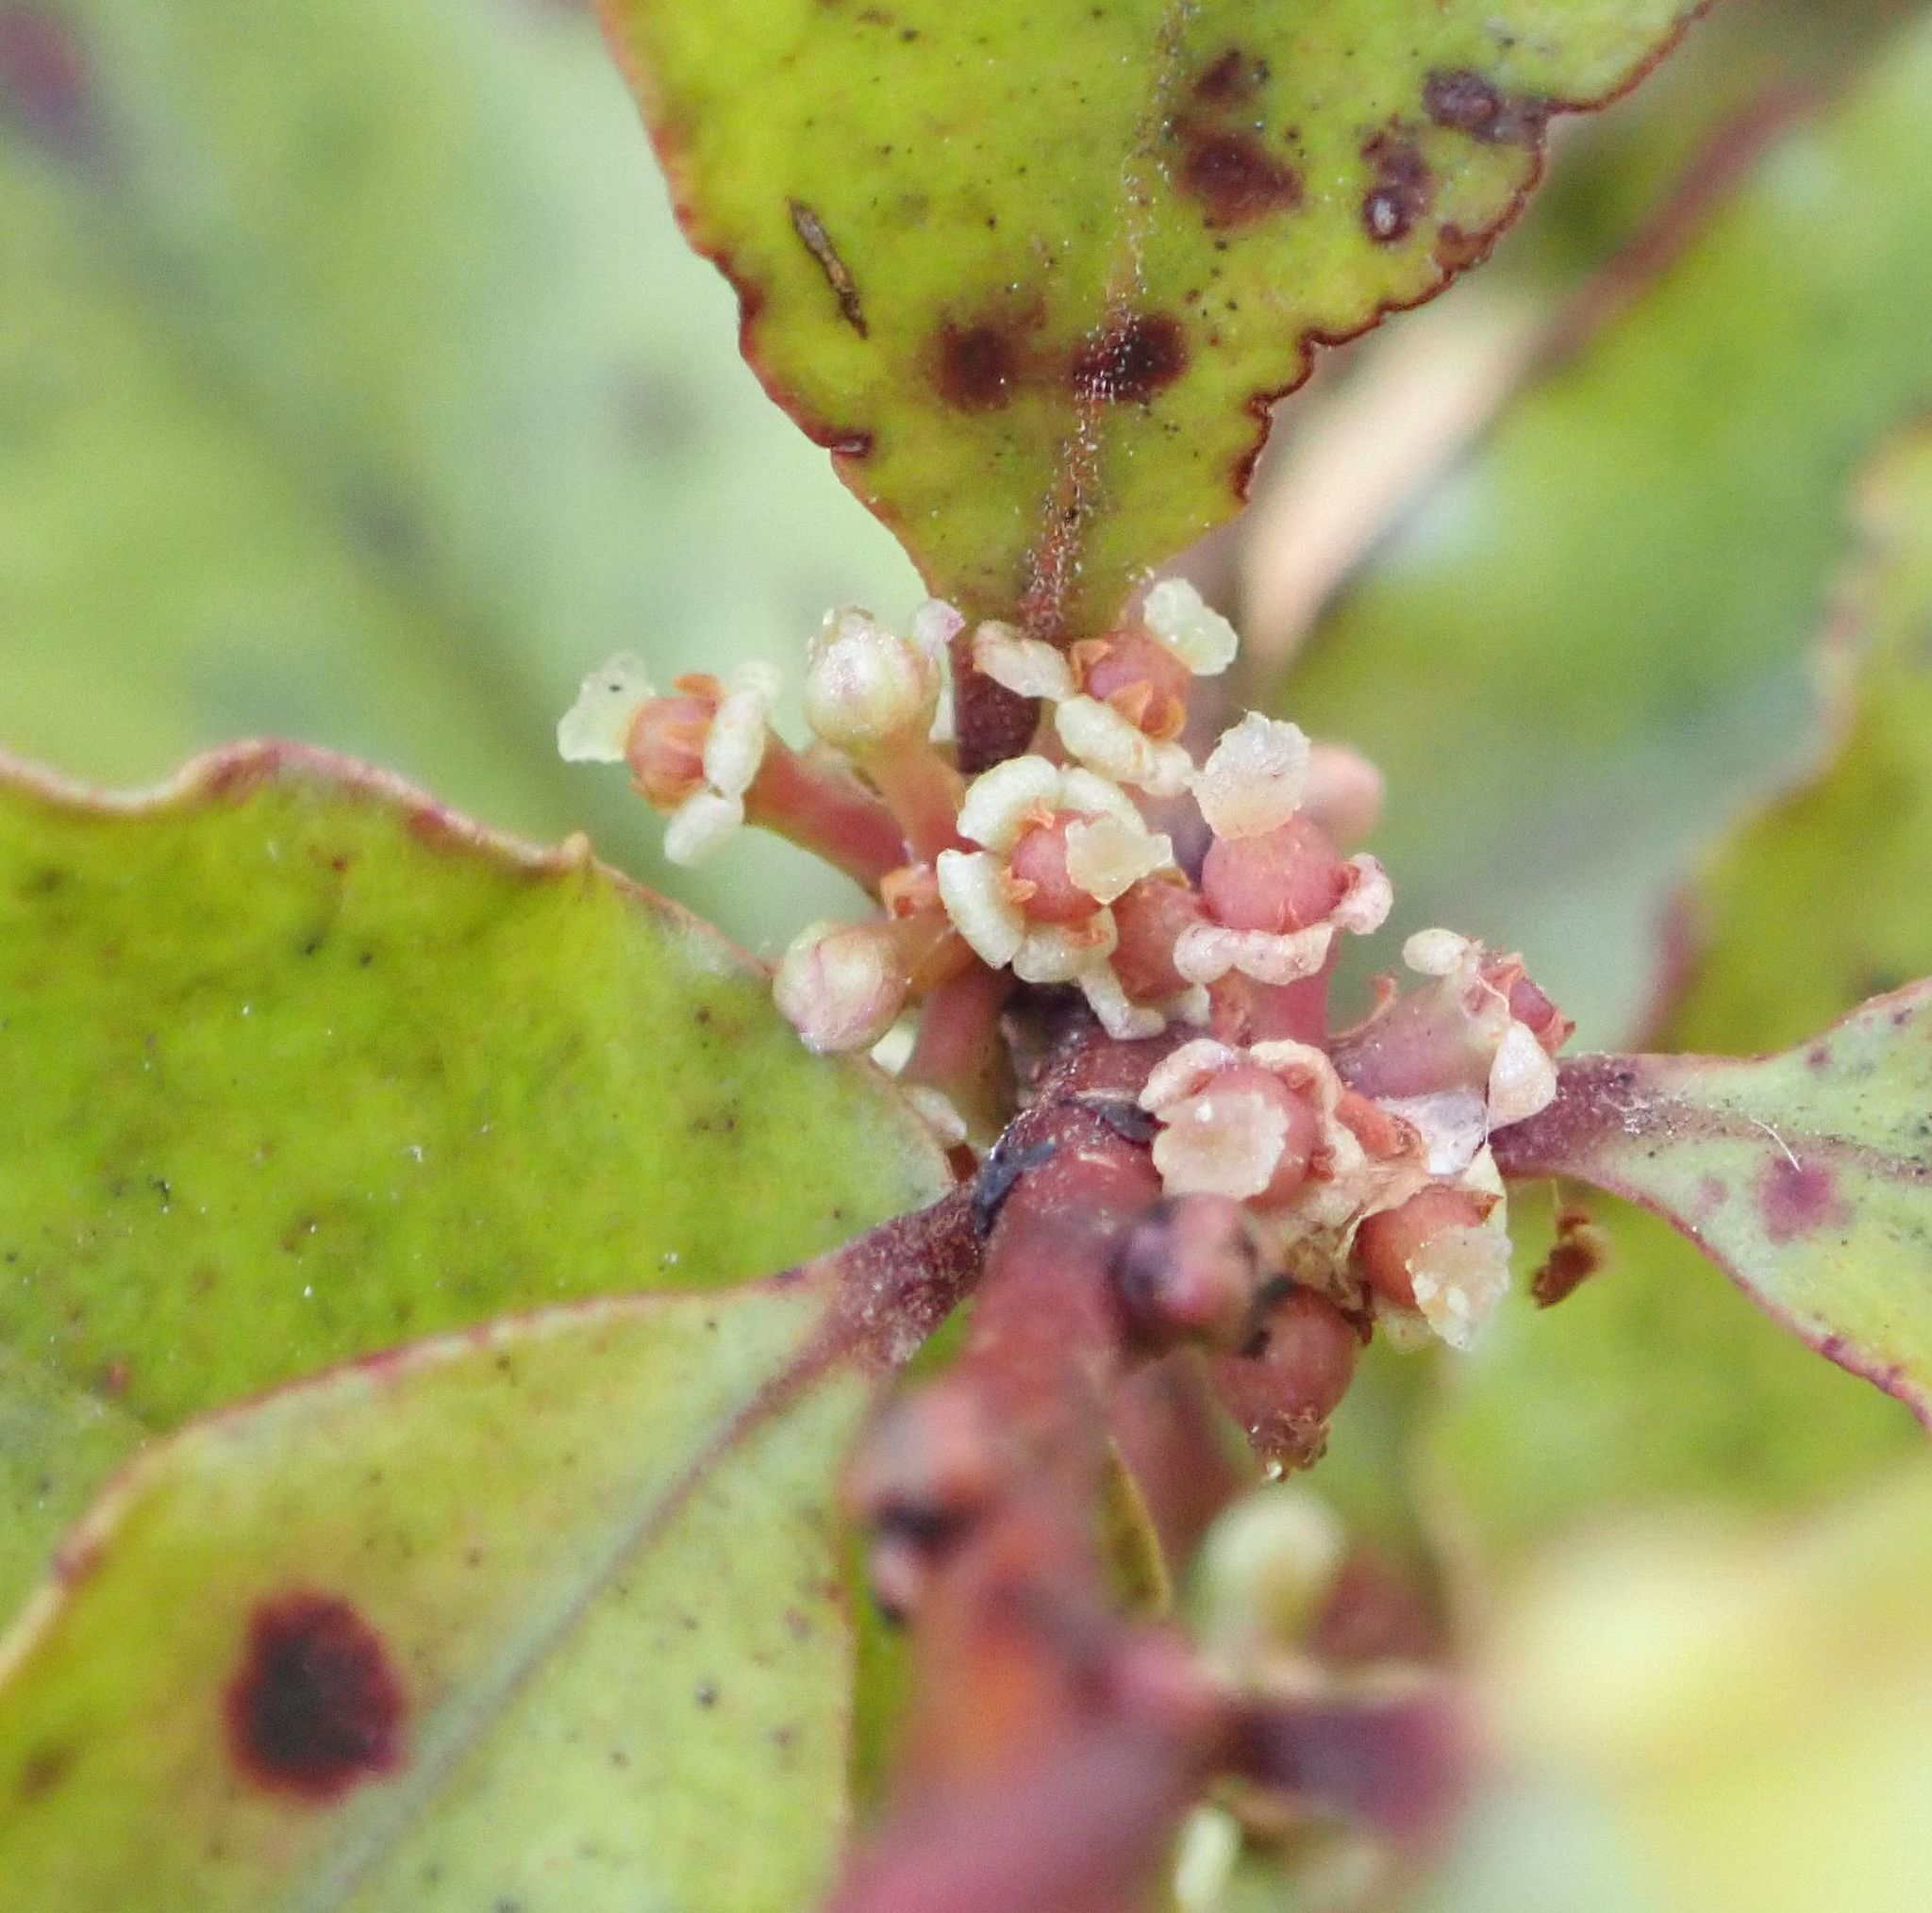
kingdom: Plantae
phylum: Tracheophyta
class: Magnoliopsida
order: Ericales
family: Primulaceae
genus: Myrsine
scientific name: Myrsine australis
